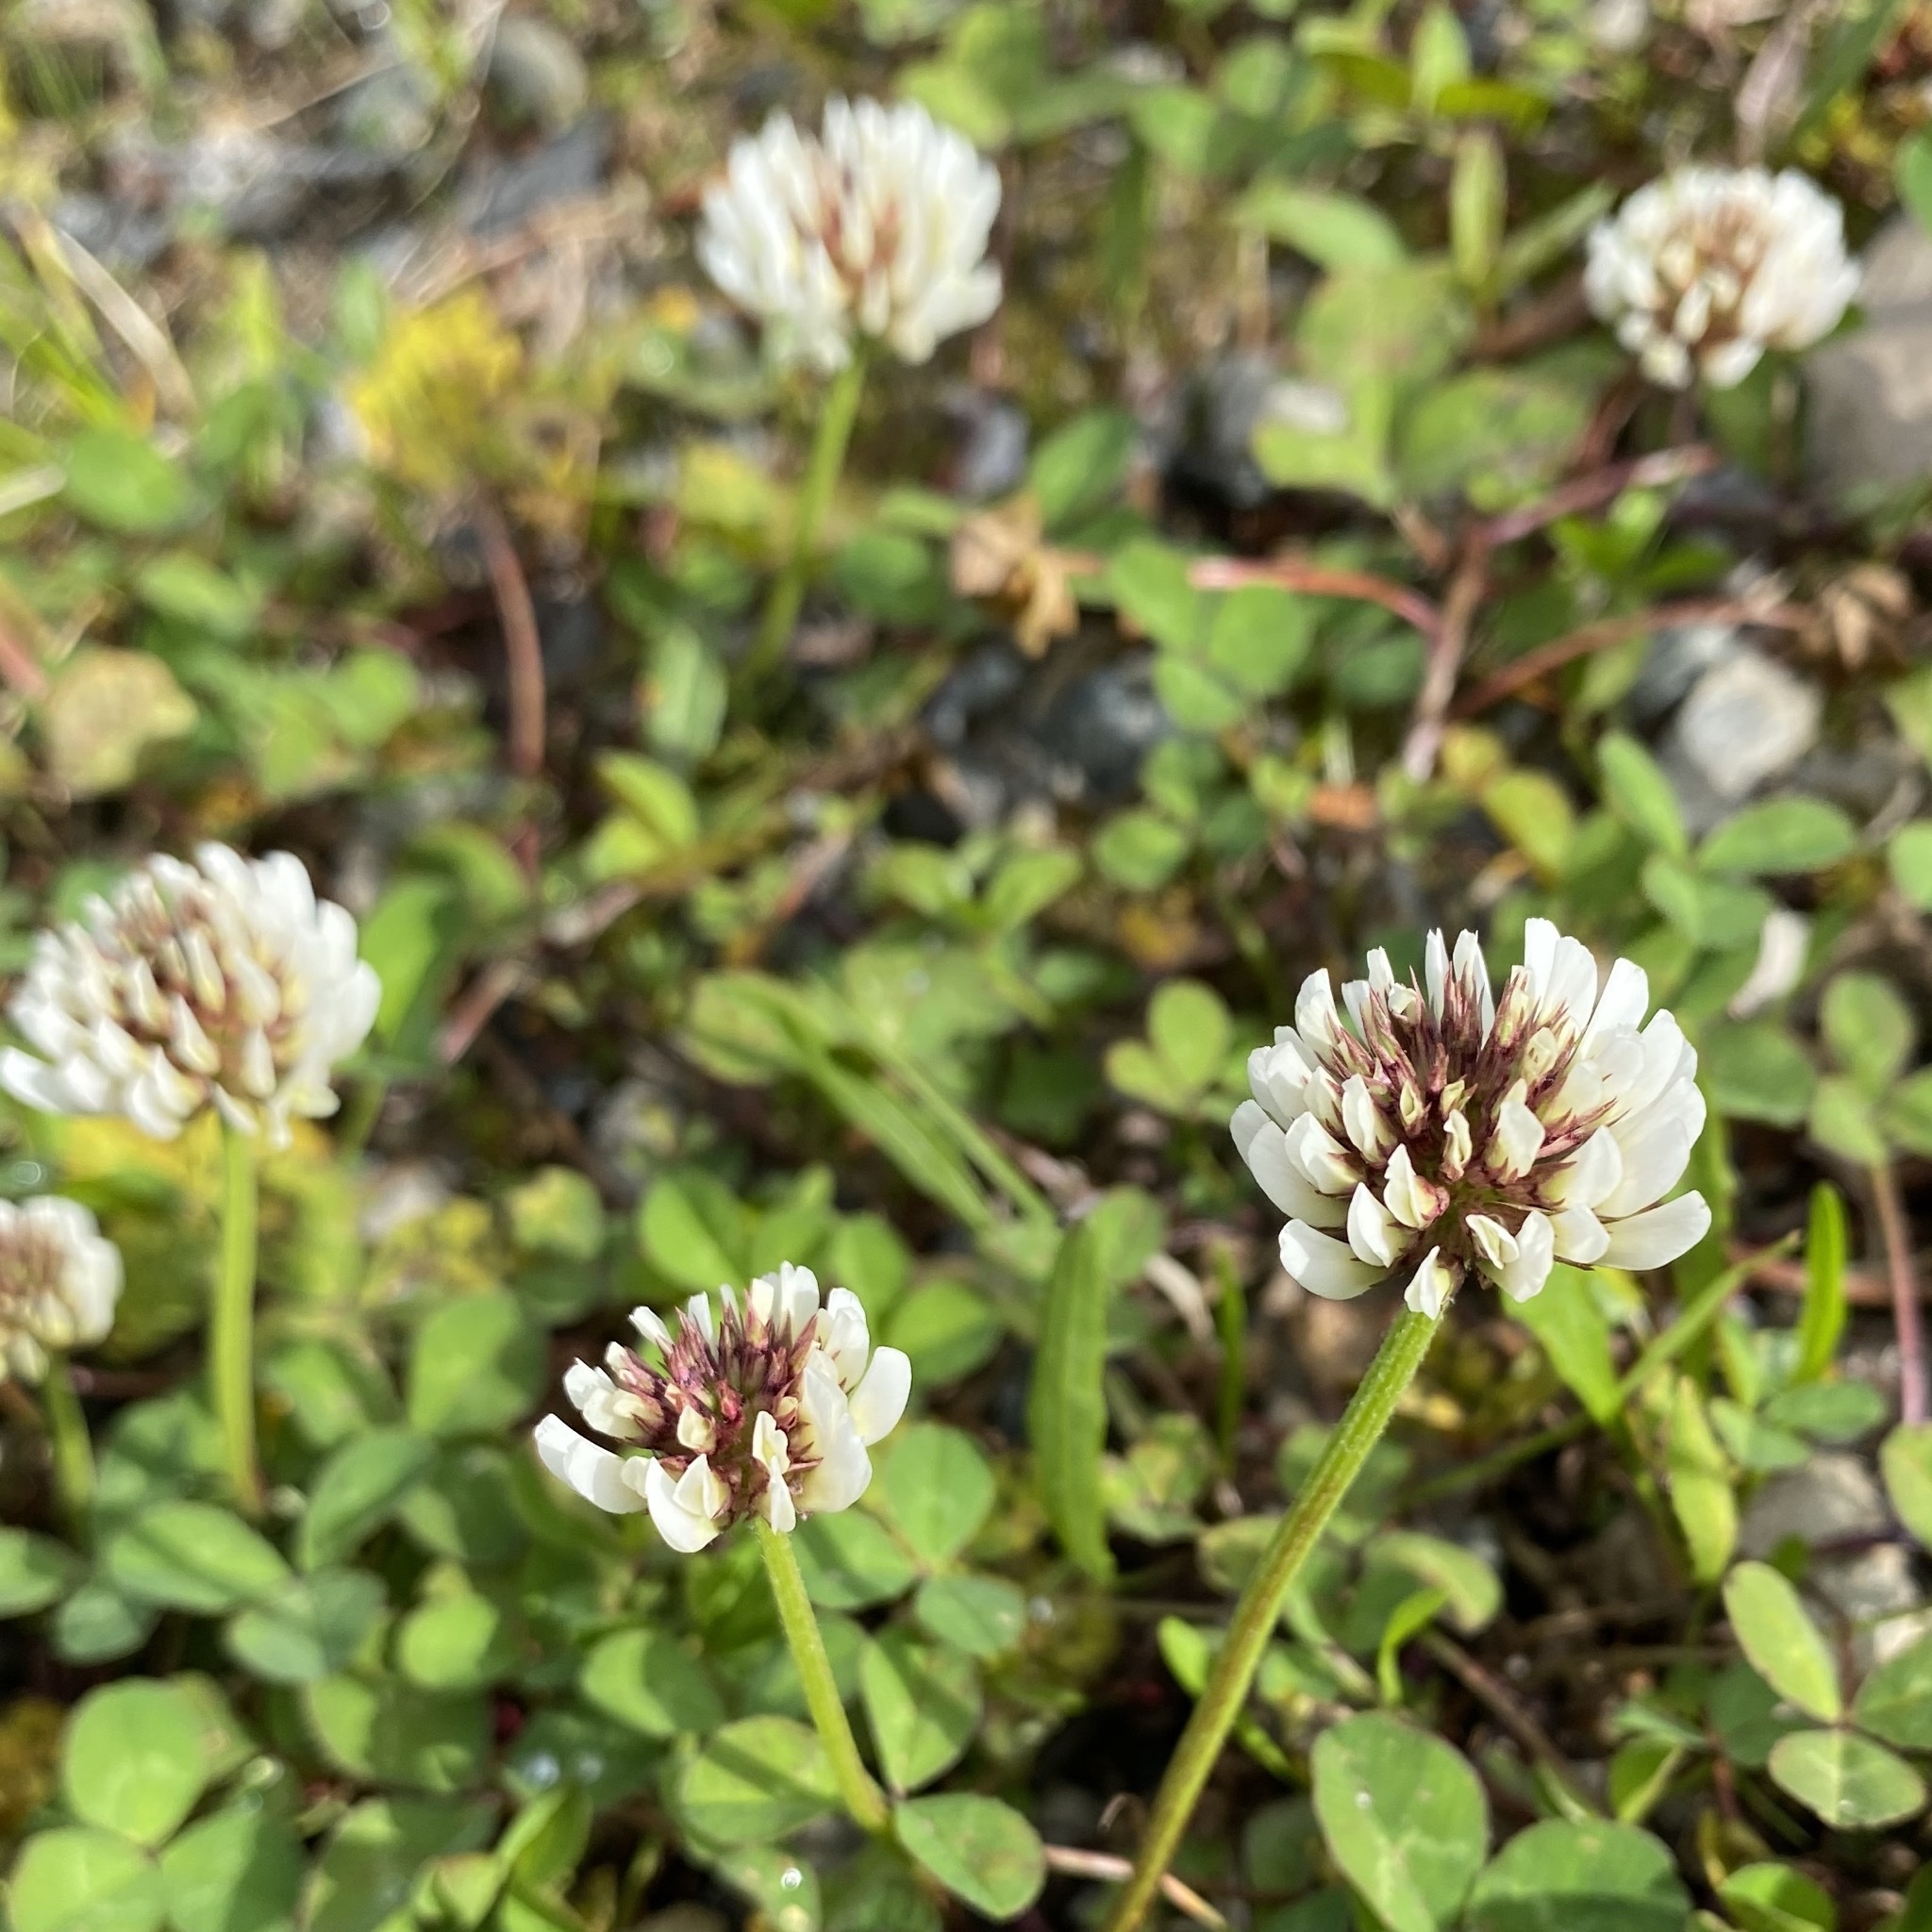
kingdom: Plantae
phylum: Tracheophyta
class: Magnoliopsida
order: Fabales
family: Fabaceae
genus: Trifolium
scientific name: Trifolium repens
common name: White clover
